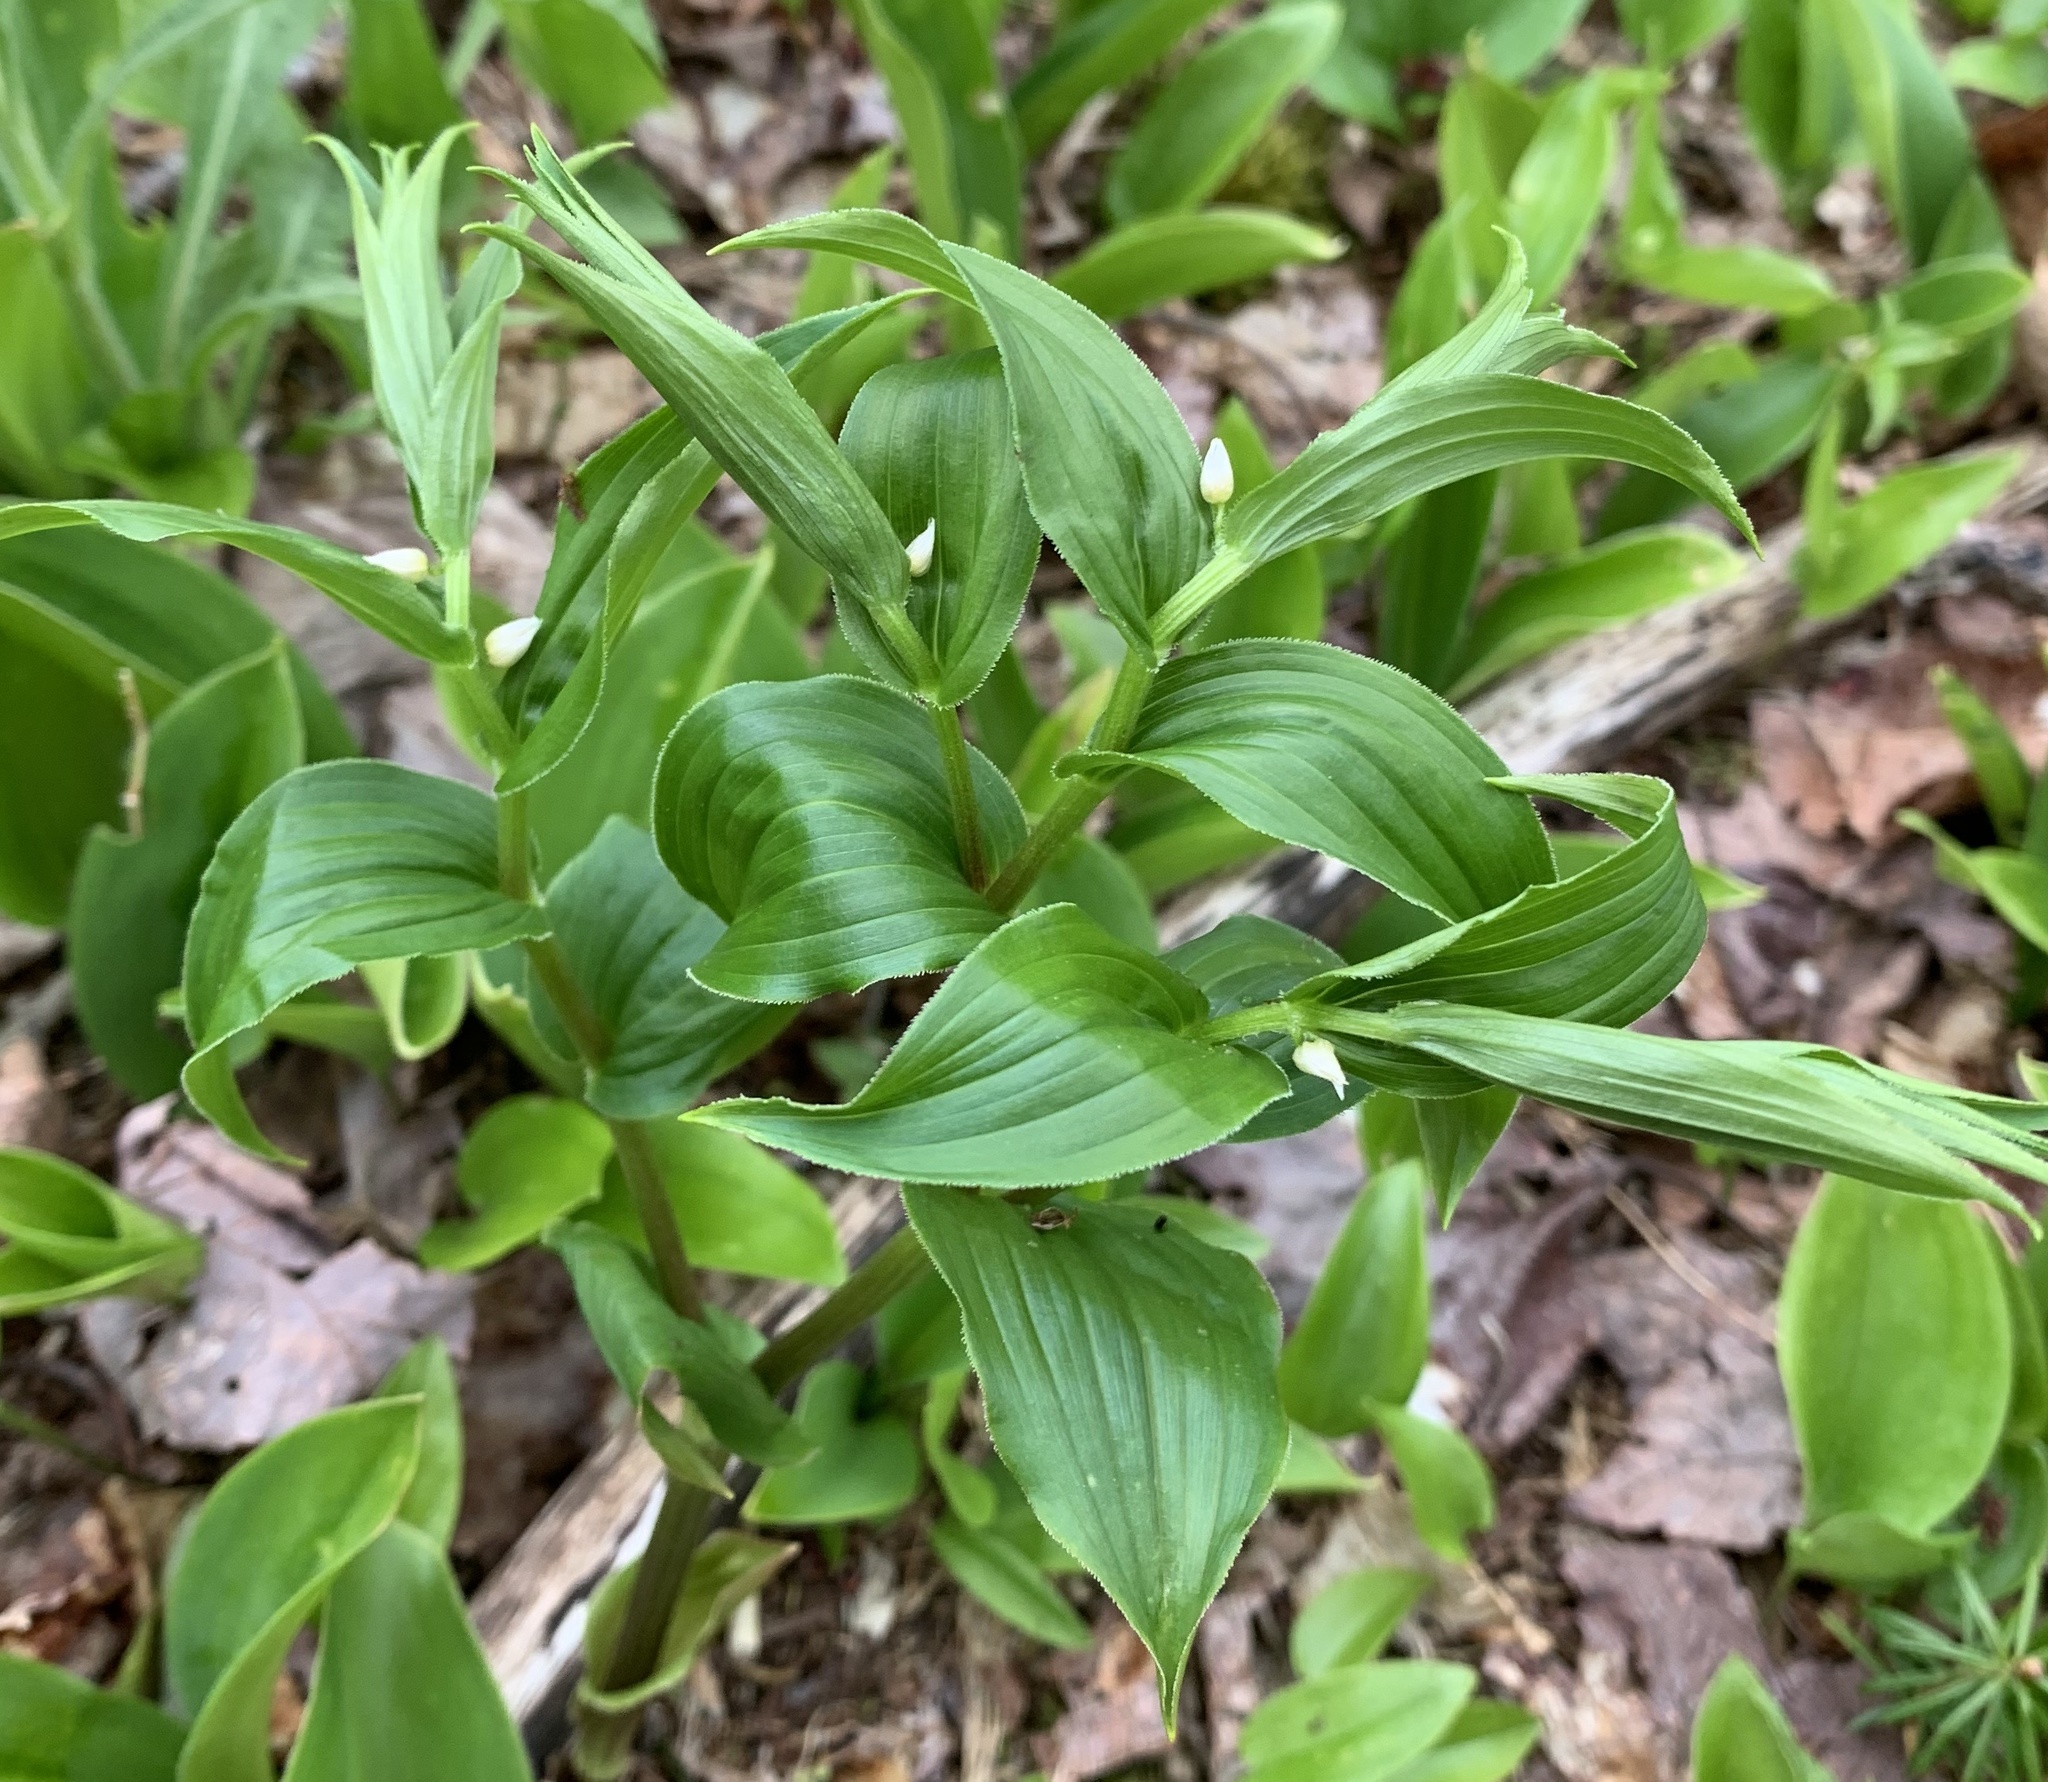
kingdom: Plantae
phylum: Tracheophyta
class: Liliopsida
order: Liliales
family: Liliaceae
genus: Streptopus
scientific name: Streptopus lanceolatus
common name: Rose mandarin
